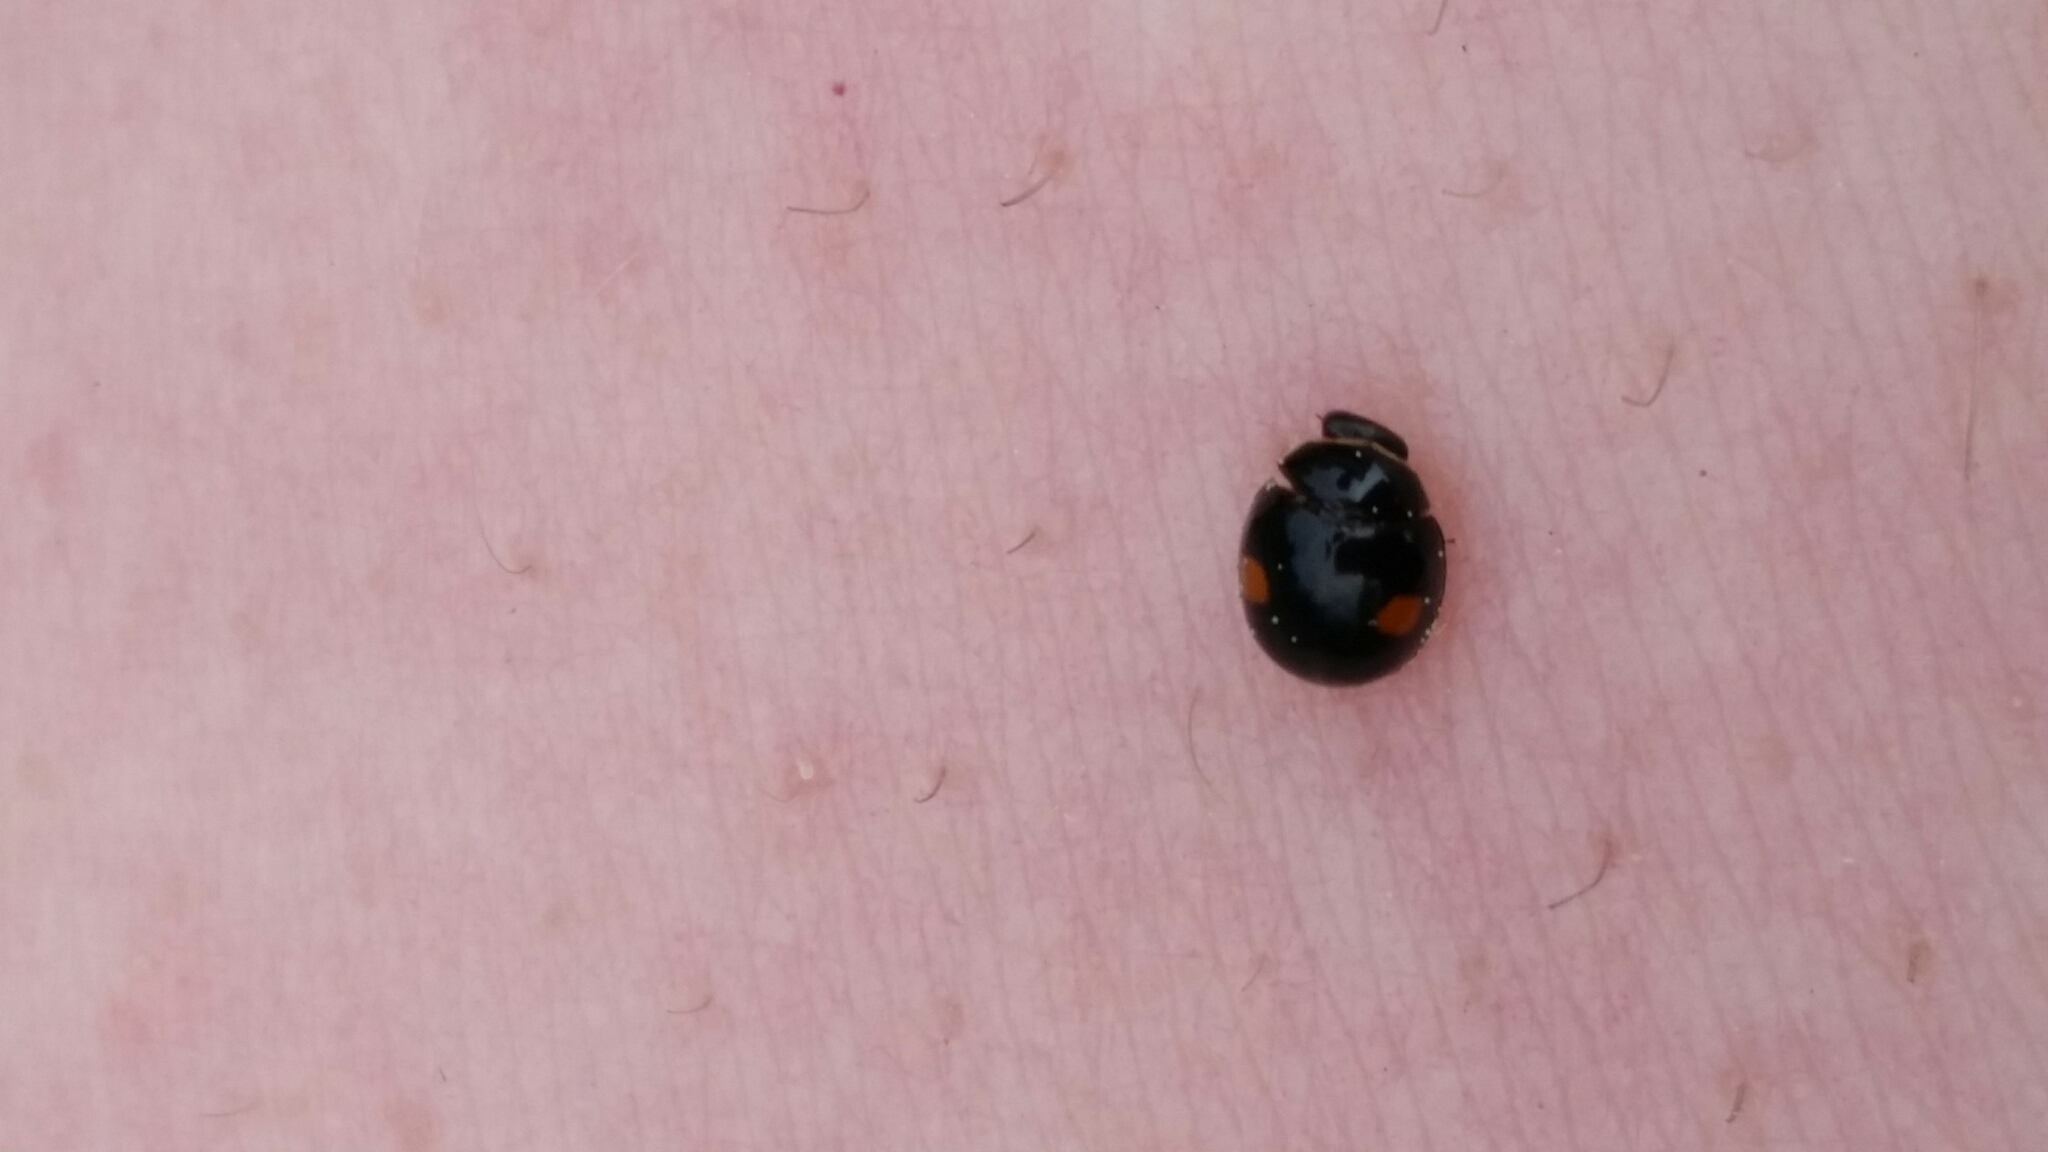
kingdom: Animalia
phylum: Arthropoda
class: Insecta
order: Coleoptera
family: Coccinellidae
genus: Chilocorus
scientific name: Chilocorus stigma
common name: Twicestabbed lady beetle
